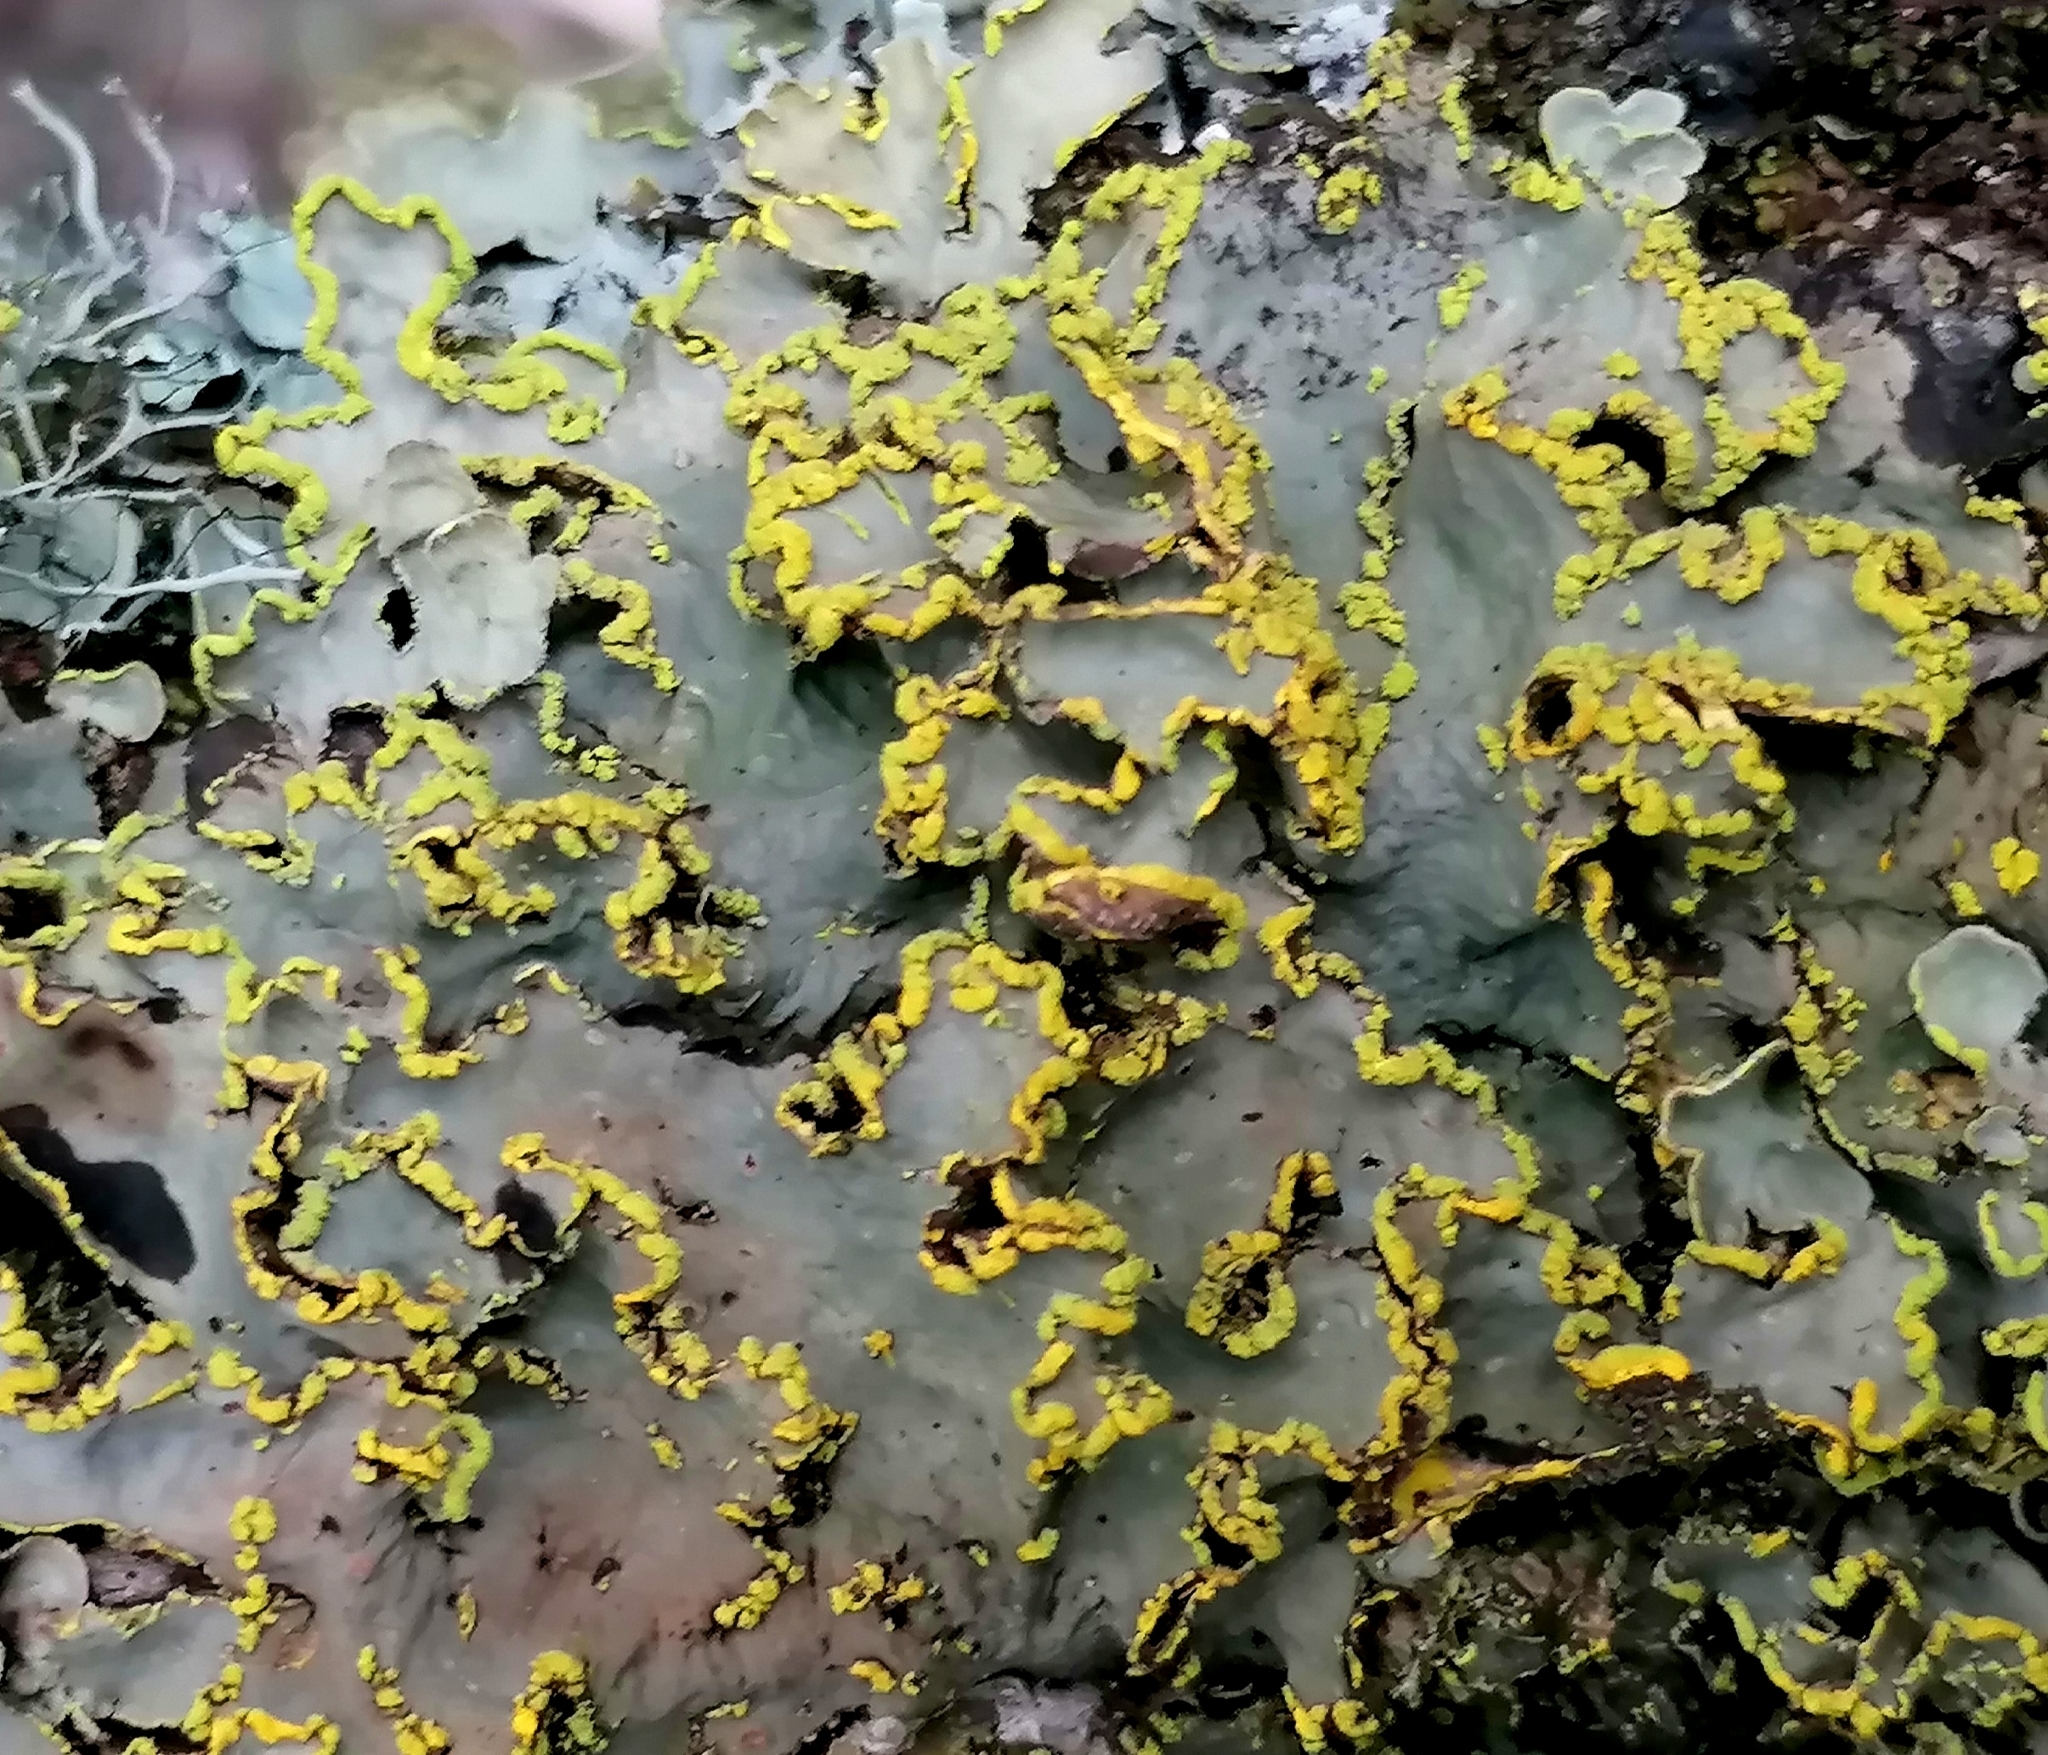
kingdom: Fungi
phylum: Ascomycota
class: Lecanoromycetes
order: Peltigerales
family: Lobariaceae
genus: Pseudocyphellaria
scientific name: Pseudocyphellaria aurata
